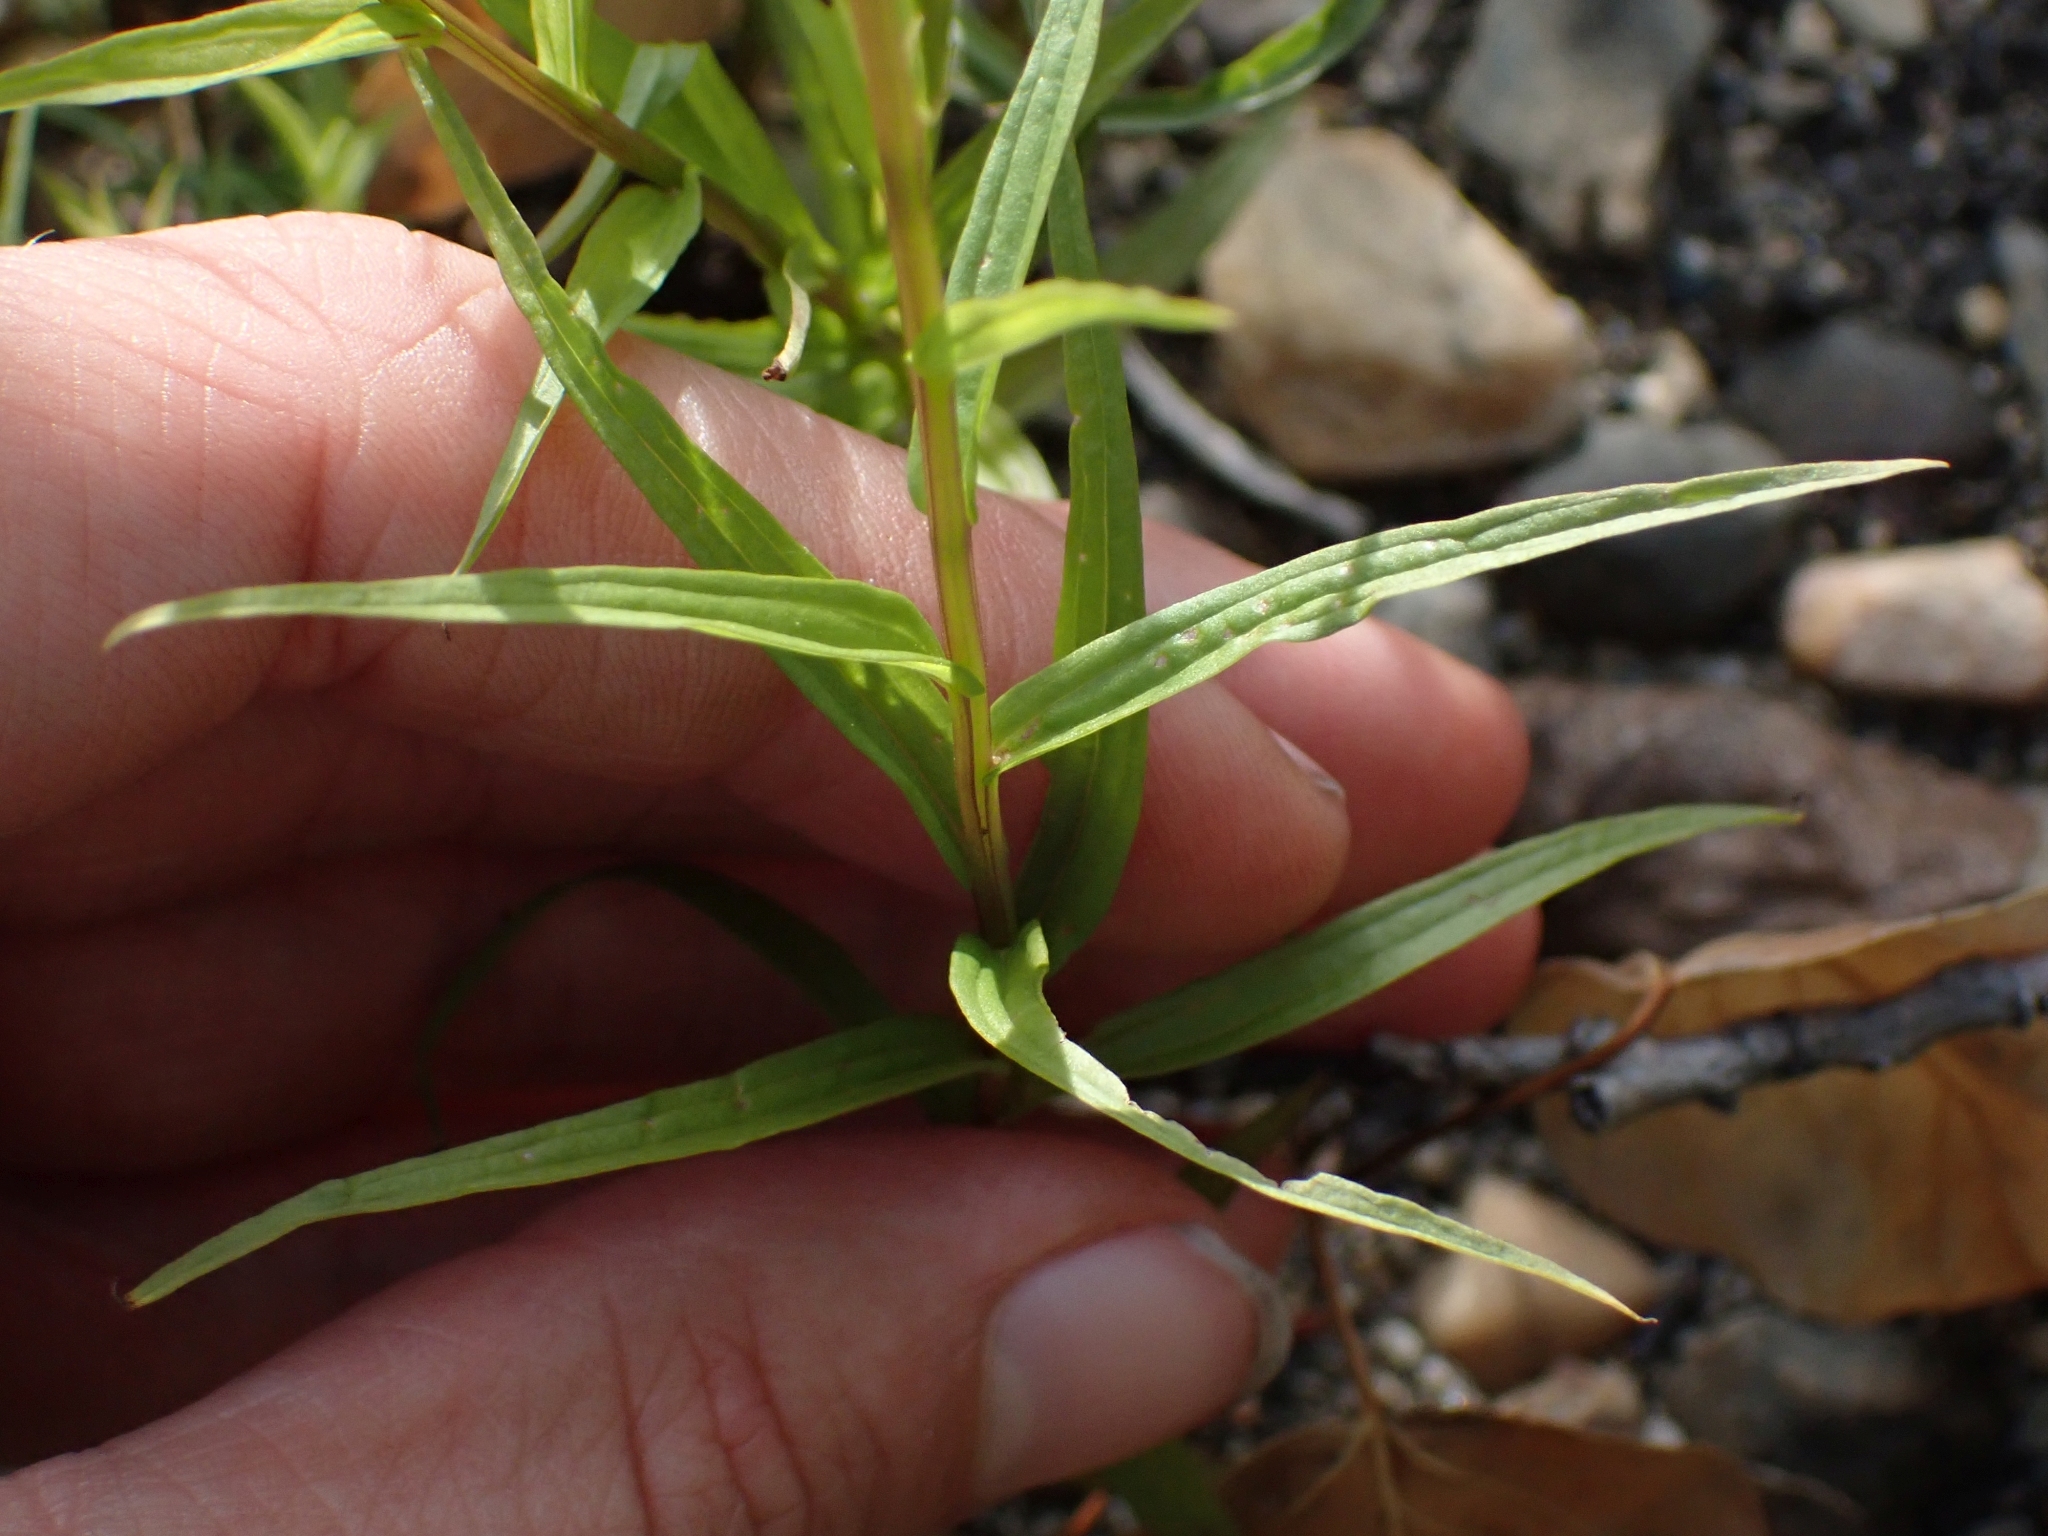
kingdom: Plantae
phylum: Tracheophyta
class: Magnoliopsida
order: Lamiales
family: Orobanchaceae
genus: Castilleja
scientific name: Castilleja miniata
